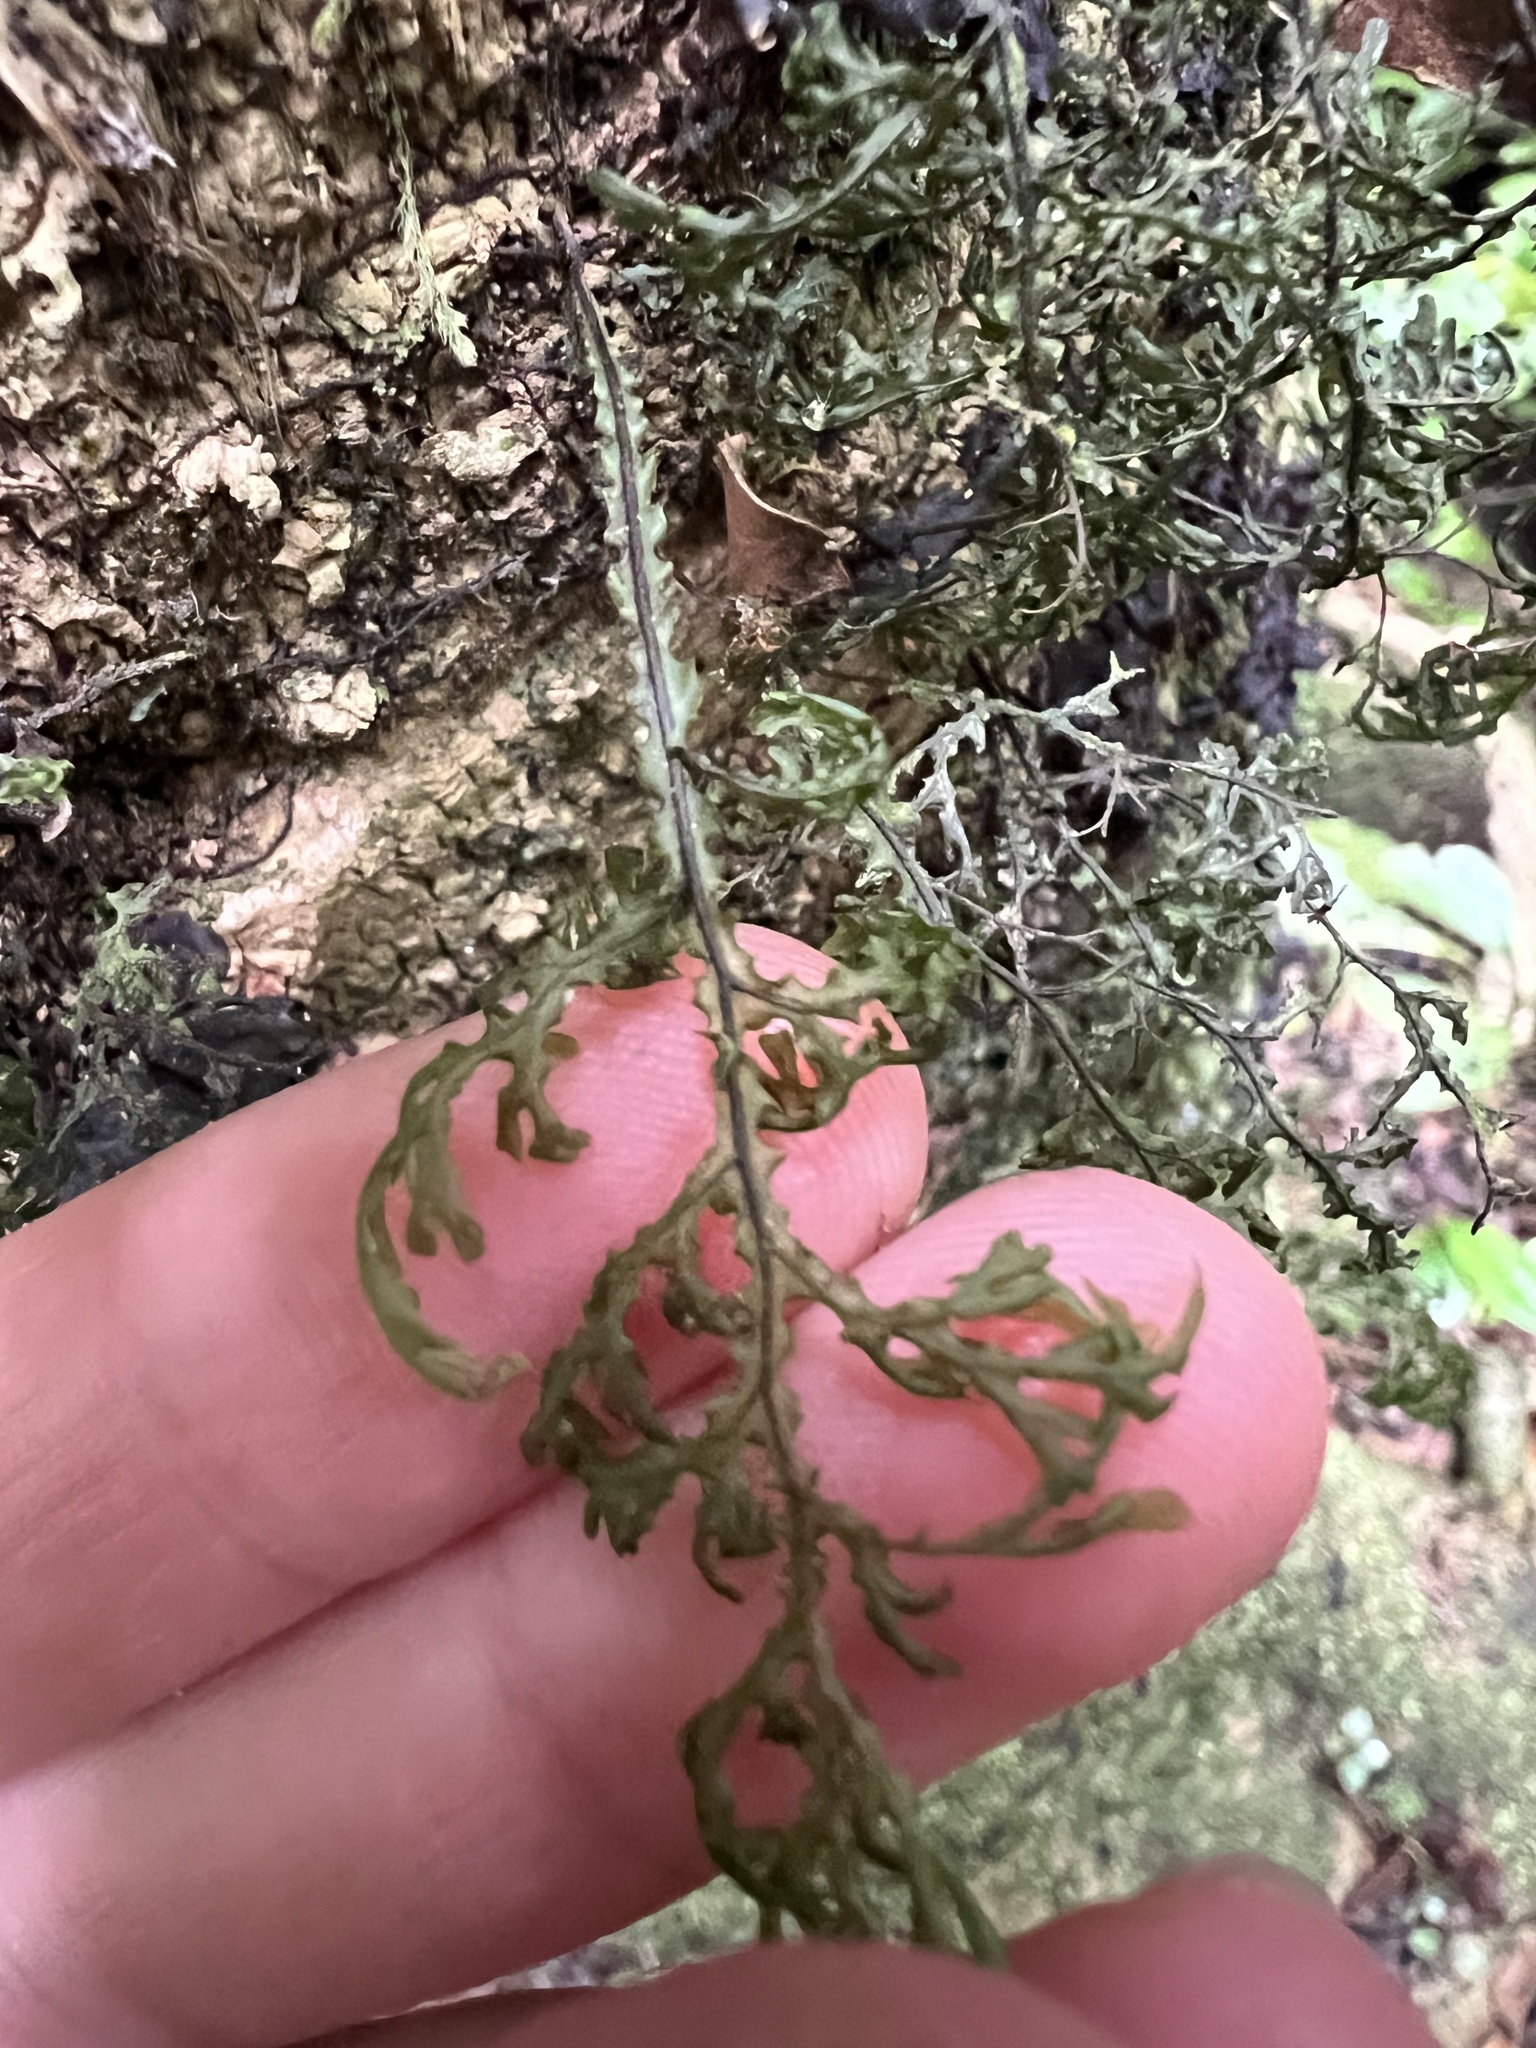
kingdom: Plantae
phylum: Tracheophyta
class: Polypodiopsida
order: Hymenophyllales
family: Hymenophyllaceae
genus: Hymenophyllum
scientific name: Hymenophyllum flexuosum
